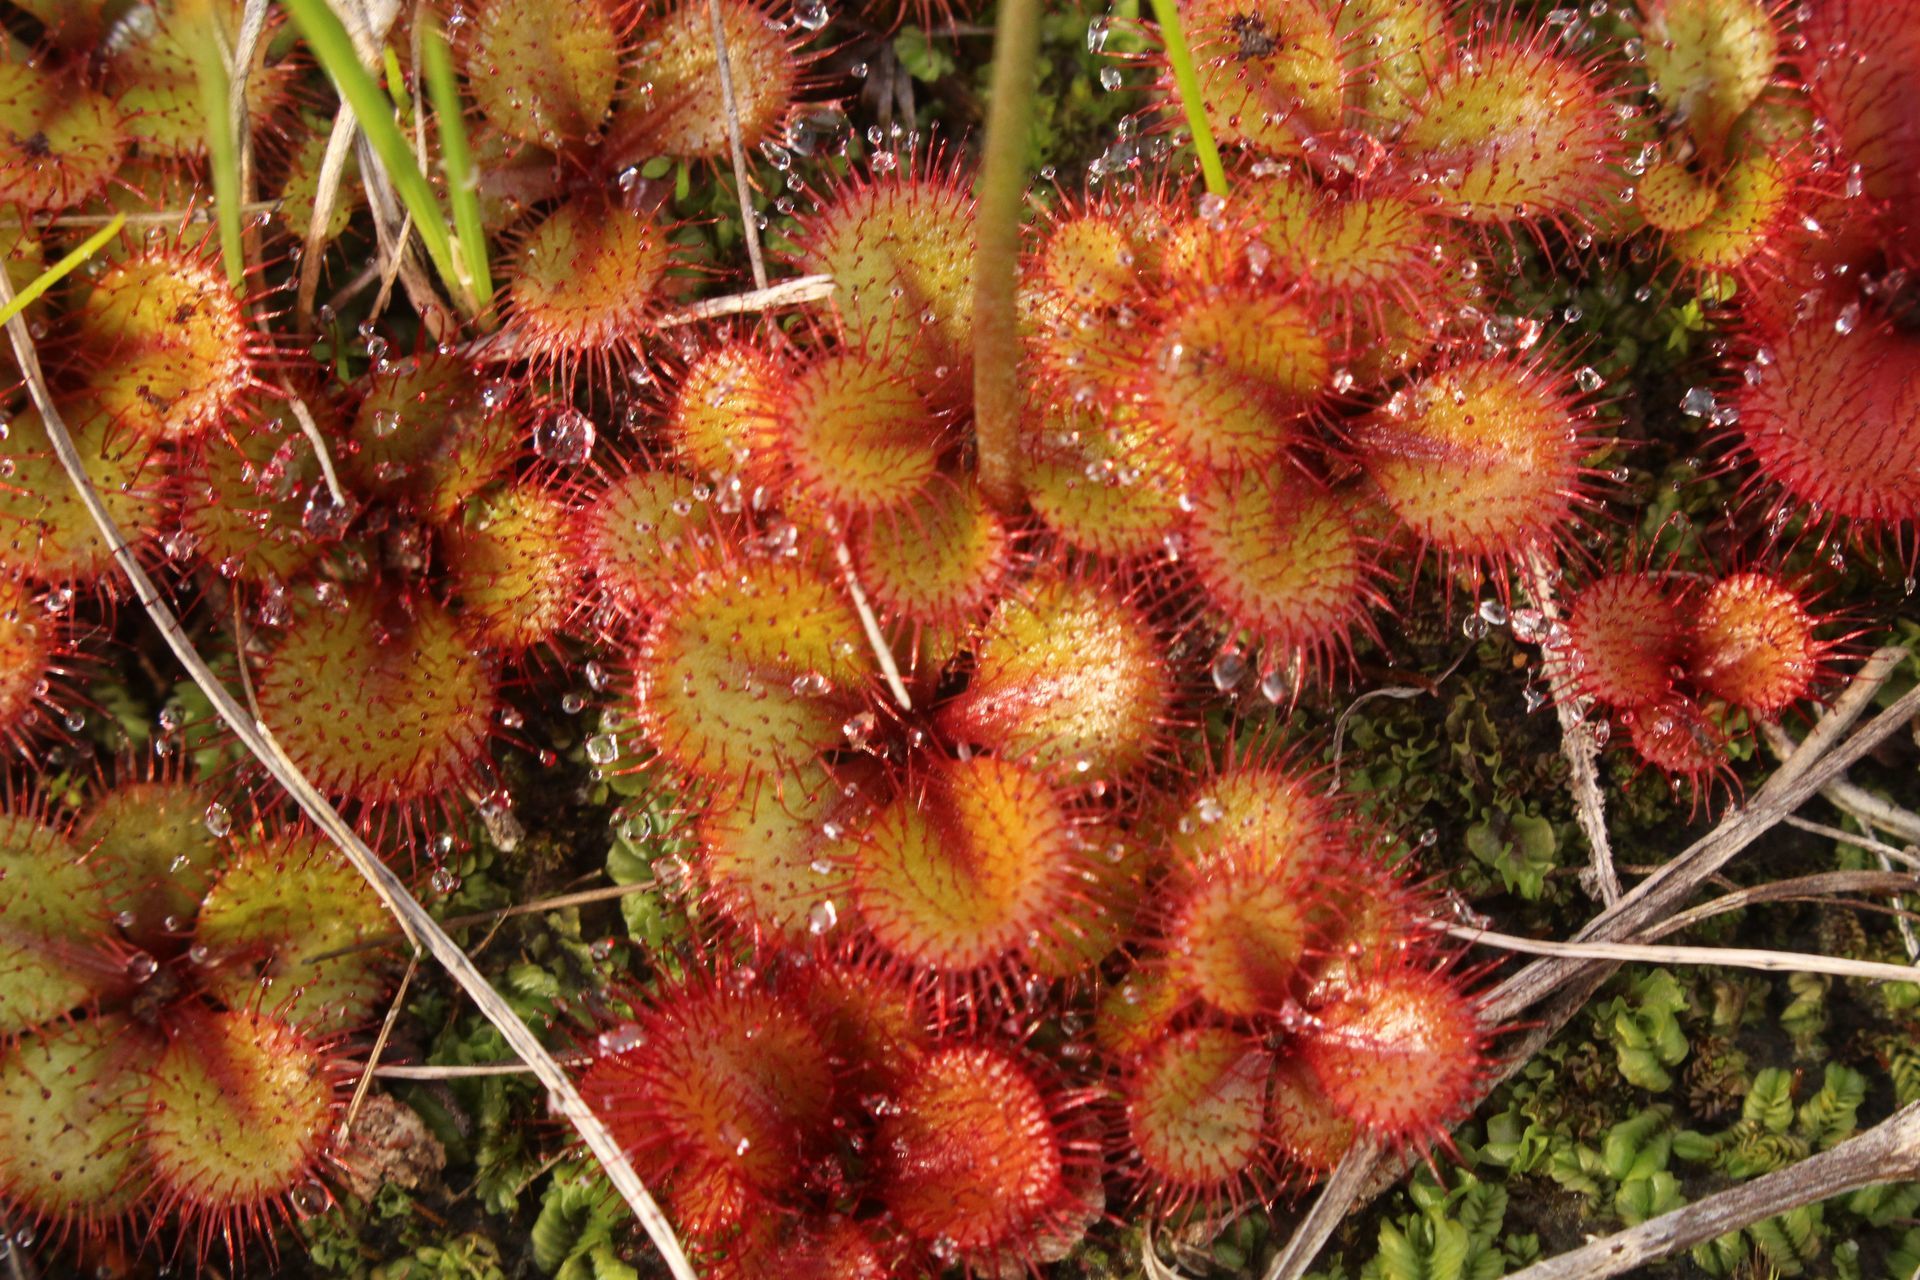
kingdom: Plantae
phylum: Tracheophyta
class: Magnoliopsida
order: Caryophyllales
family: Droseraceae
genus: Drosera
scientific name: Drosera tubaestylis
